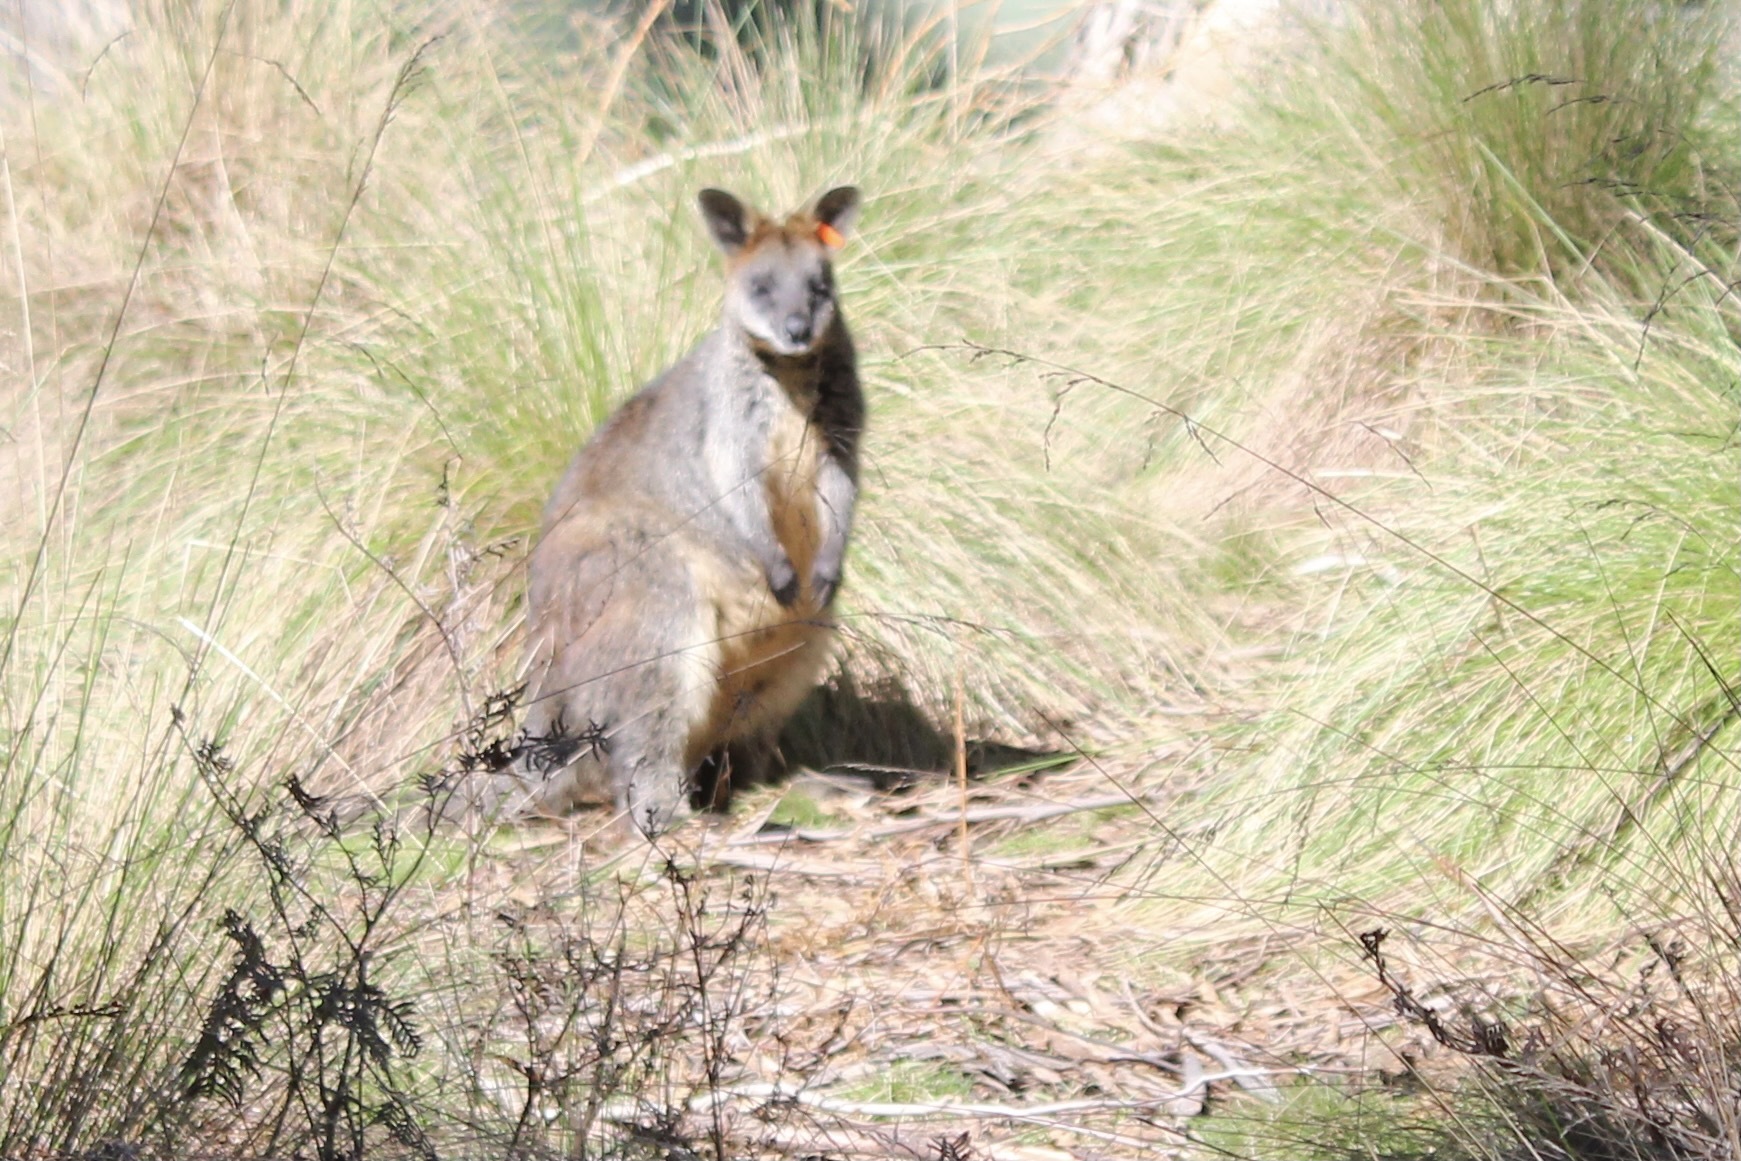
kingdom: Animalia
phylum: Chordata
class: Mammalia
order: Diprotodontia
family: Macropodidae
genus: Wallabia
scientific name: Wallabia bicolor
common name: Swamp wallaby
